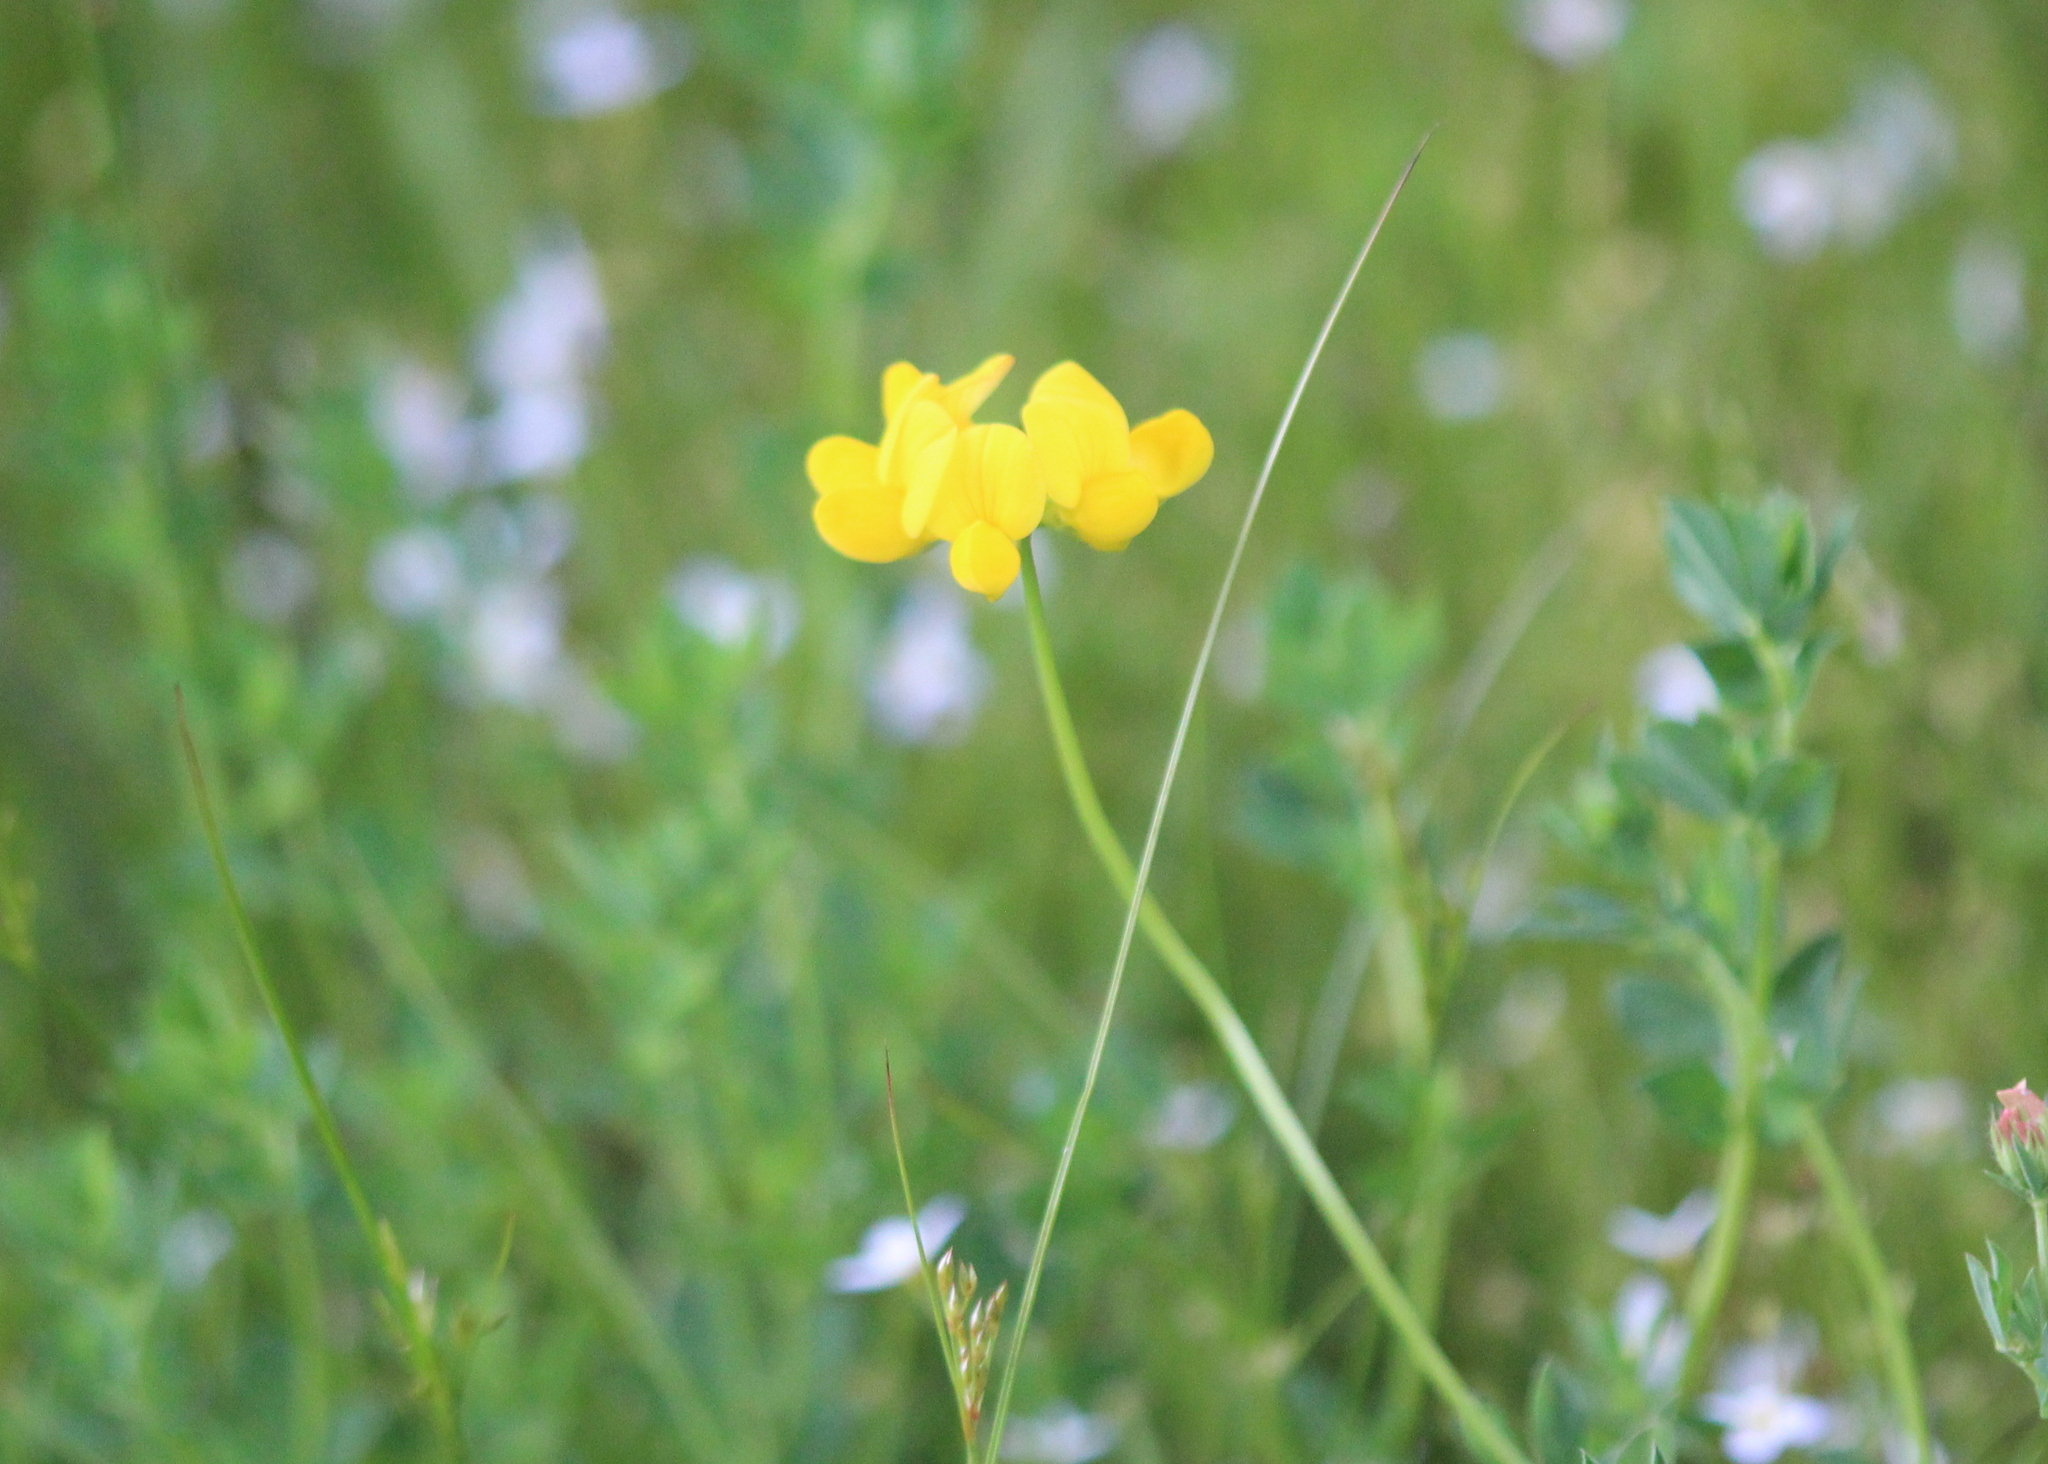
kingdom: Plantae
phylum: Tracheophyta
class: Magnoliopsida
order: Fabales
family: Fabaceae
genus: Lotus
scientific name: Lotus corniculatus
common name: Common bird's-foot-trefoil
